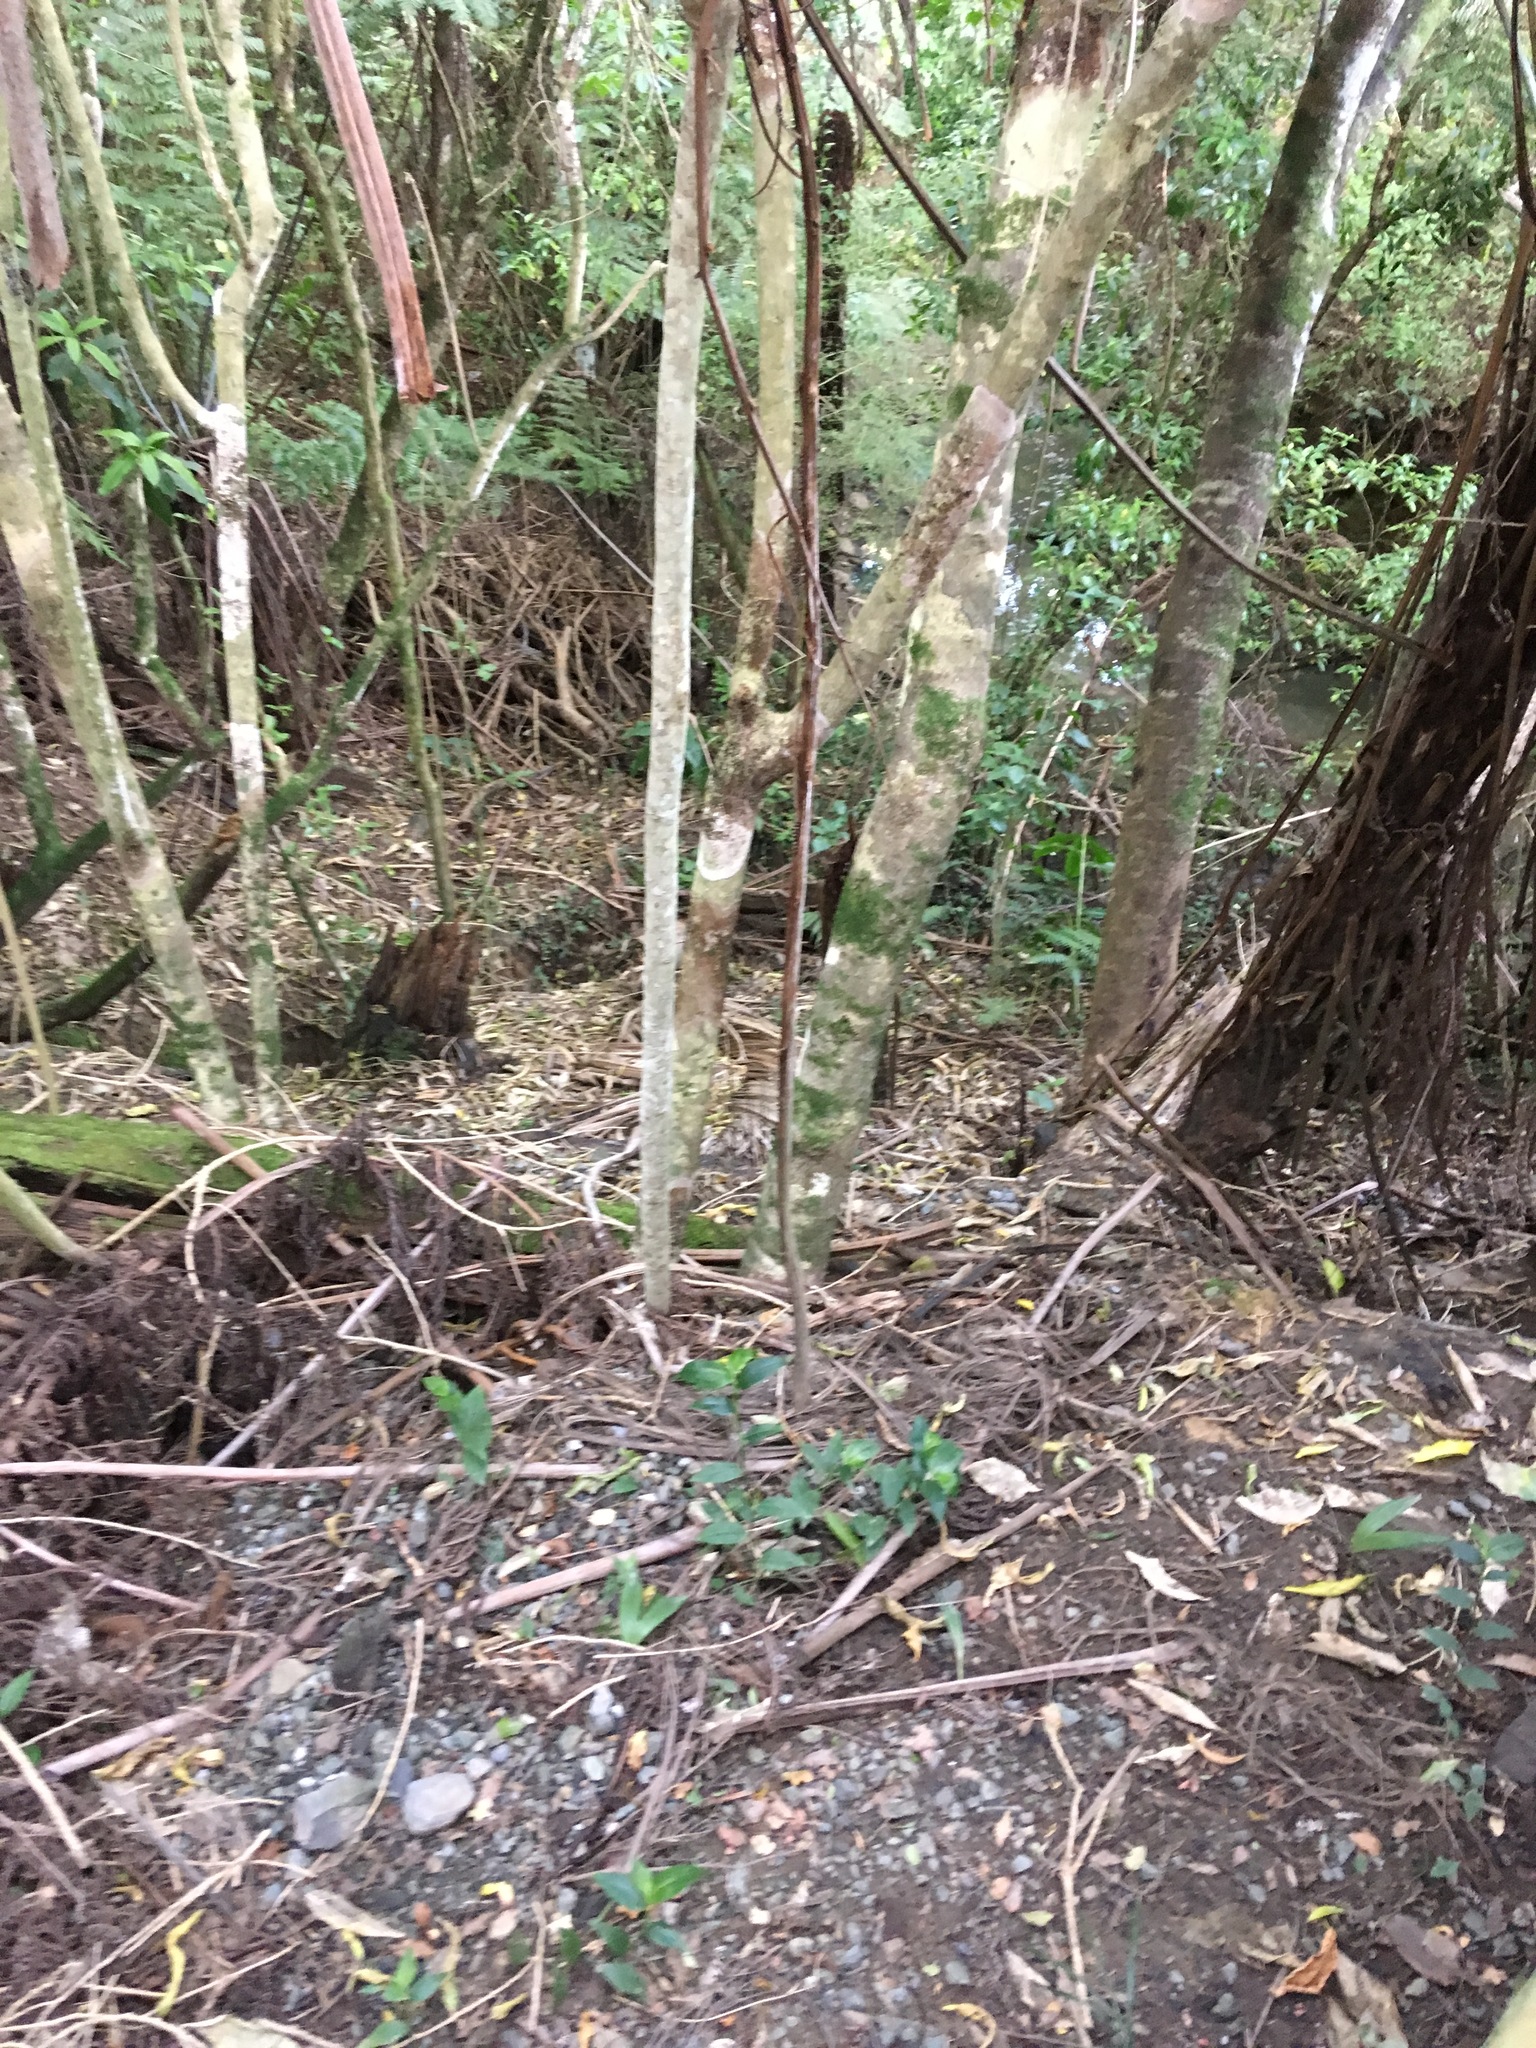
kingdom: Plantae
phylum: Tracheophyta
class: Liliopsida
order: Commelinales
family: Commelinaceae
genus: Tradescantia
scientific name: Tradescantia fluminensis
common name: Wandering-jew
